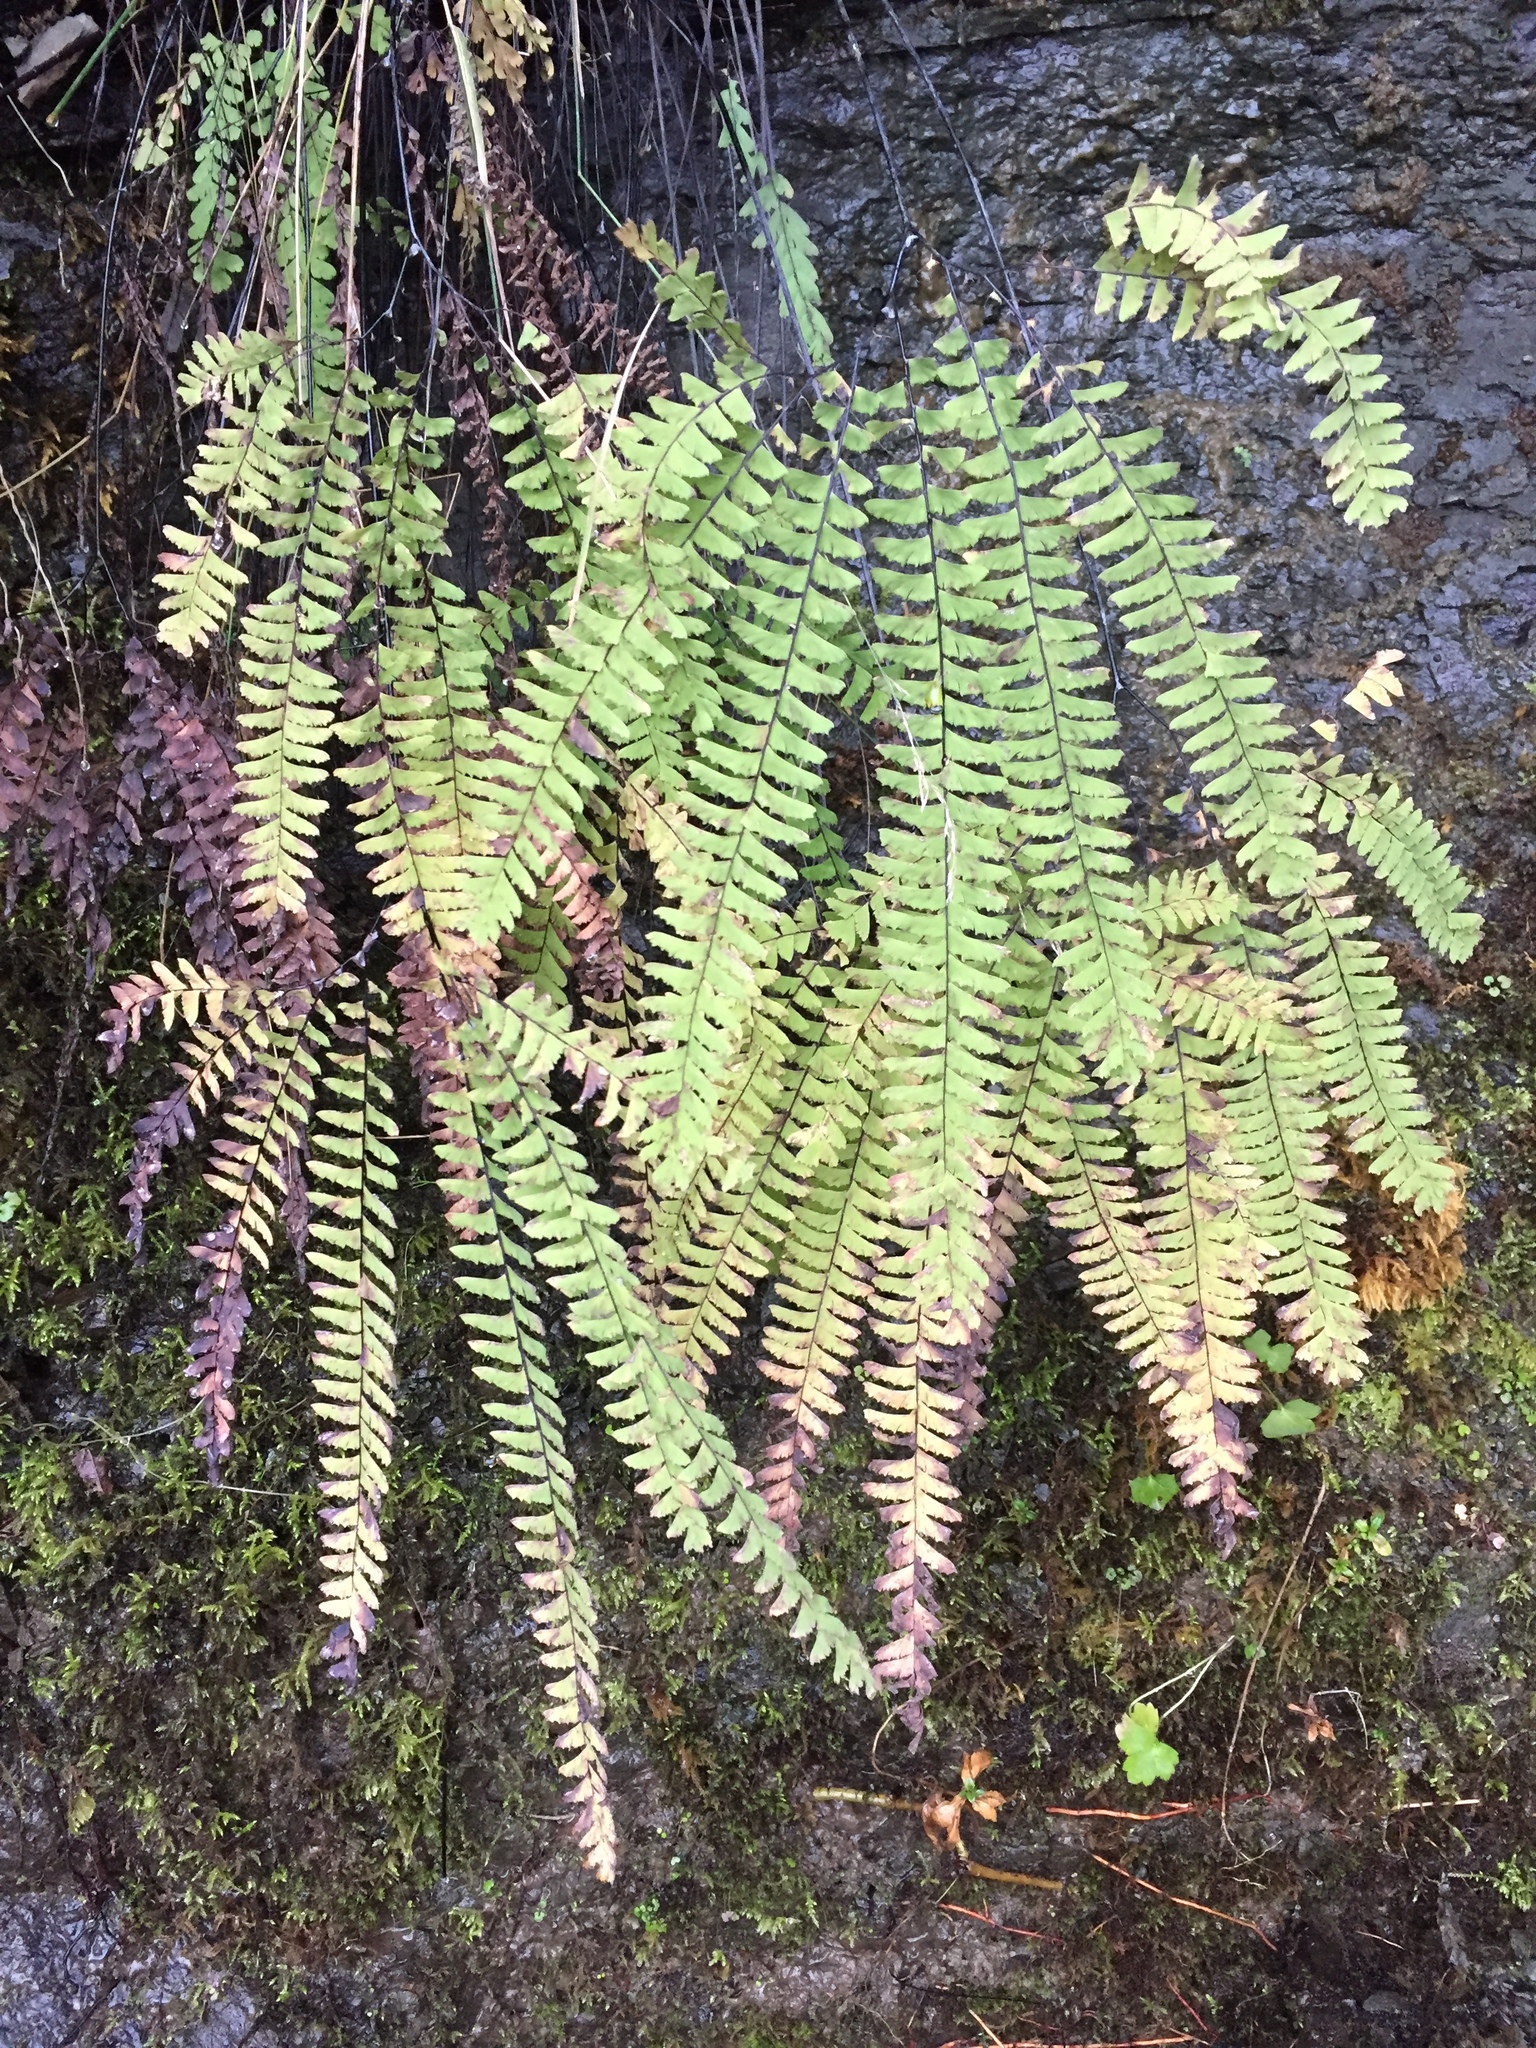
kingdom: Plantae
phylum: Tracheophyta
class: Polypodiopsida
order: Polypodiales
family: Pteridaceae
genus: Adiantum
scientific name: Adiantum aleuticum
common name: Aleutian maidenhair fern
